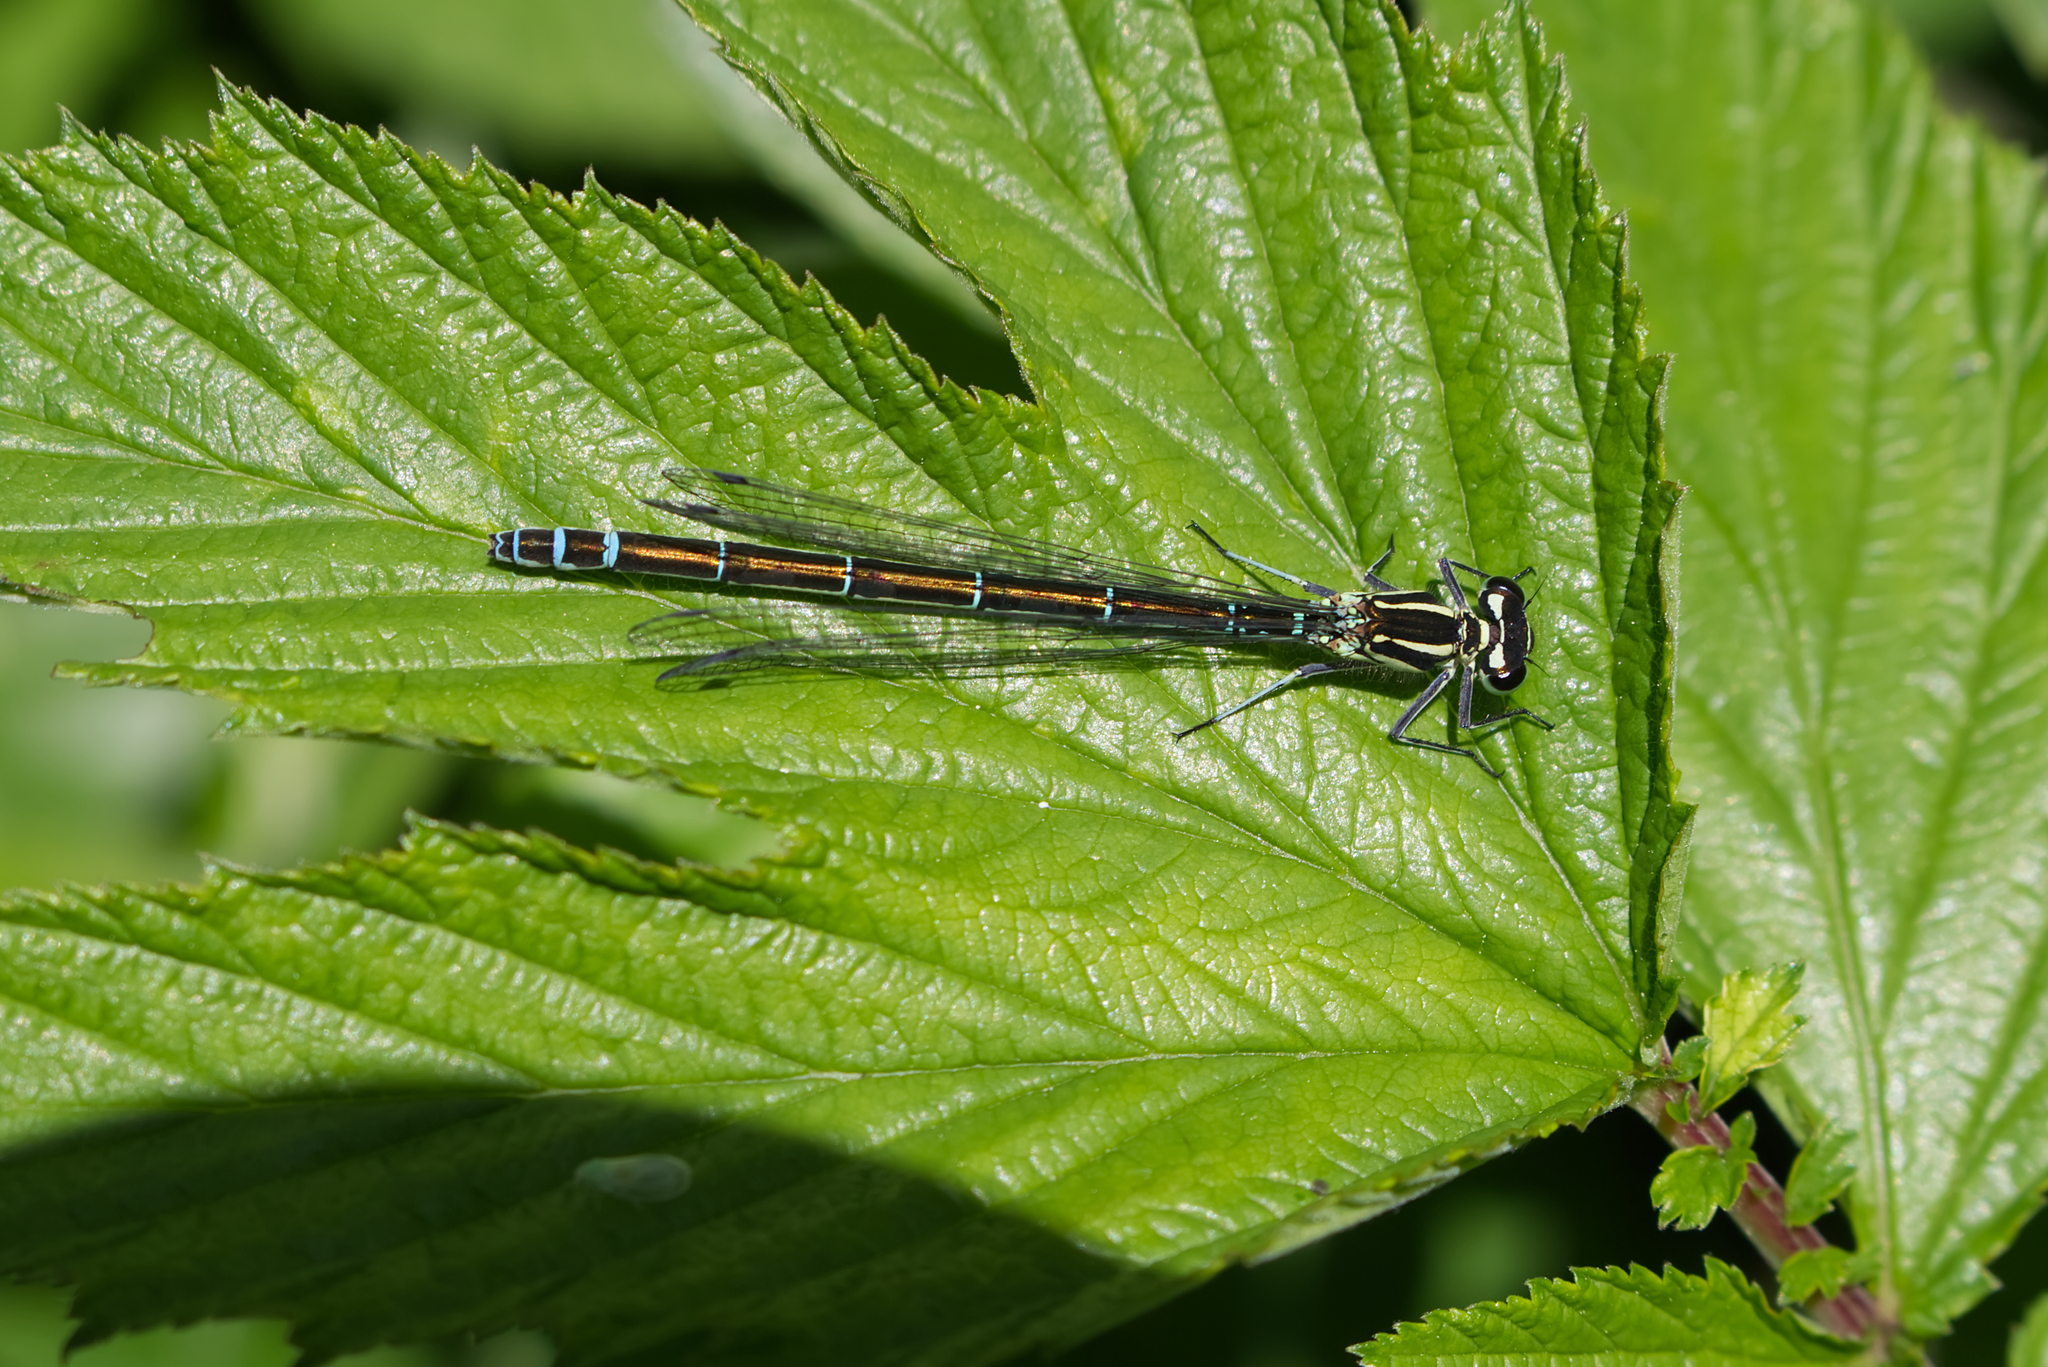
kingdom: Animalia
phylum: Arthropoda
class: Insecta
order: Odonata
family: Coenagrionidae
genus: Coenagrion
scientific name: Coenagrion puella
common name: Azure damselfly
